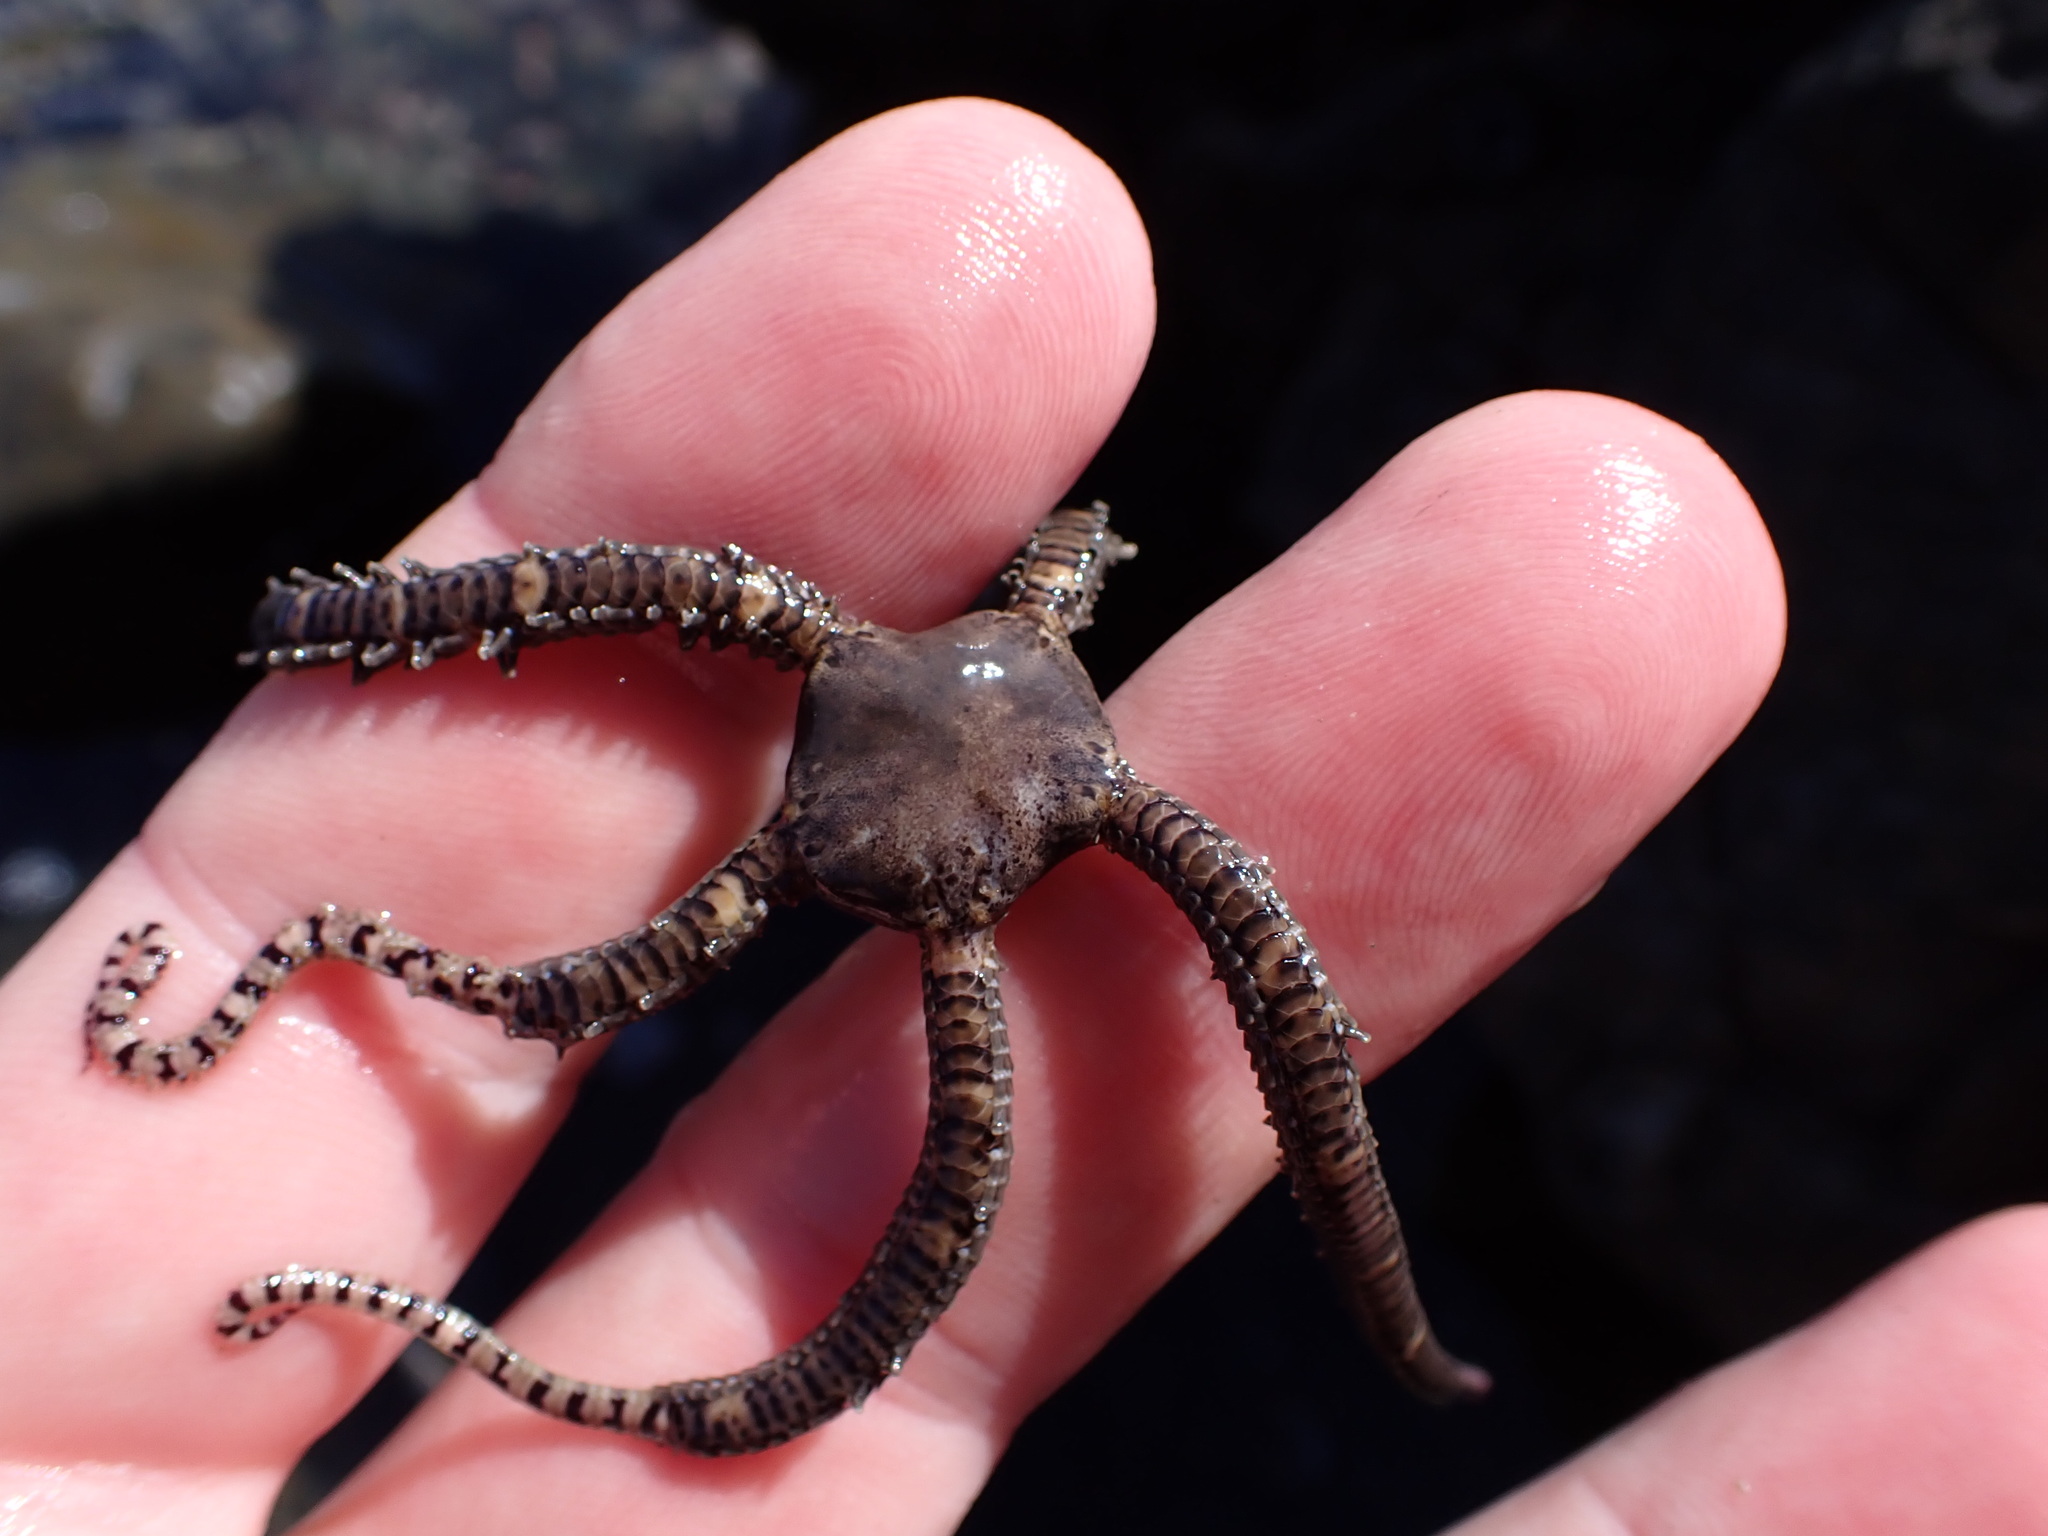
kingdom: Animalia
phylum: Echinodermata
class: Ophiuroidea
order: Amphilepidida
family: Ophionereididae
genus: Ophionereis
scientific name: Ophionereis fasciata
